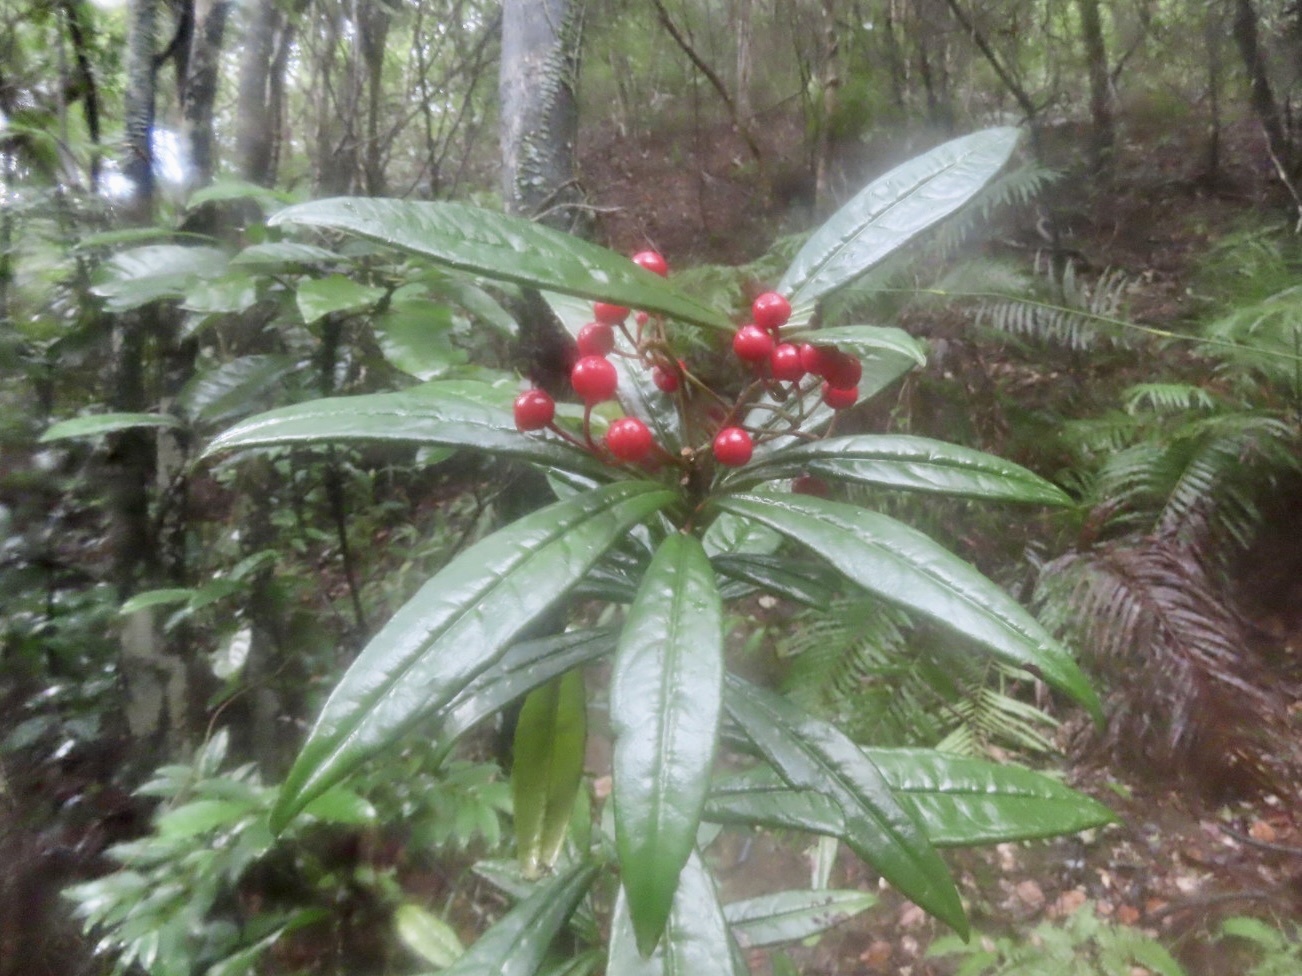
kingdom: Plantae
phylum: Tracheophyta
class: Magnoliopsida
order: Ericales
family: Primulaceae
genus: Ardisia
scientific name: Ardisia lindleyana
